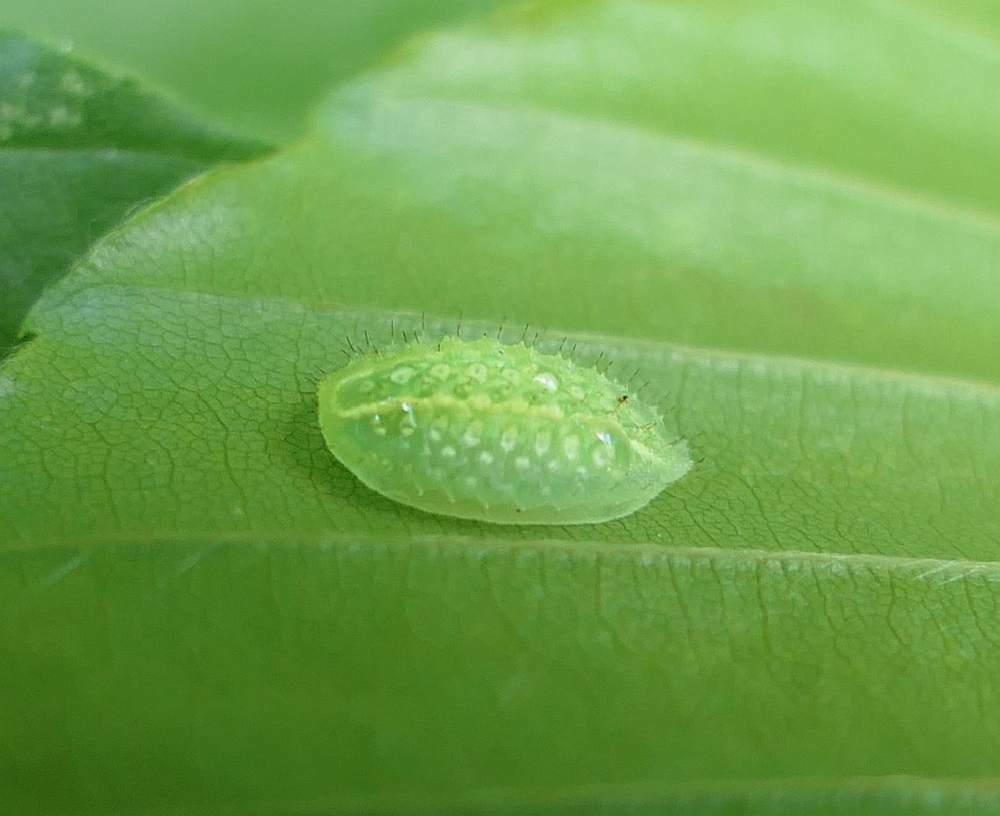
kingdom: Animalia
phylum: Arthropoda
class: Insecta
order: Lepidoptera
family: Limacodidae
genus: Lithacodes
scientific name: Lithacodes fasciola
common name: Yellow-shouldered slug moth
